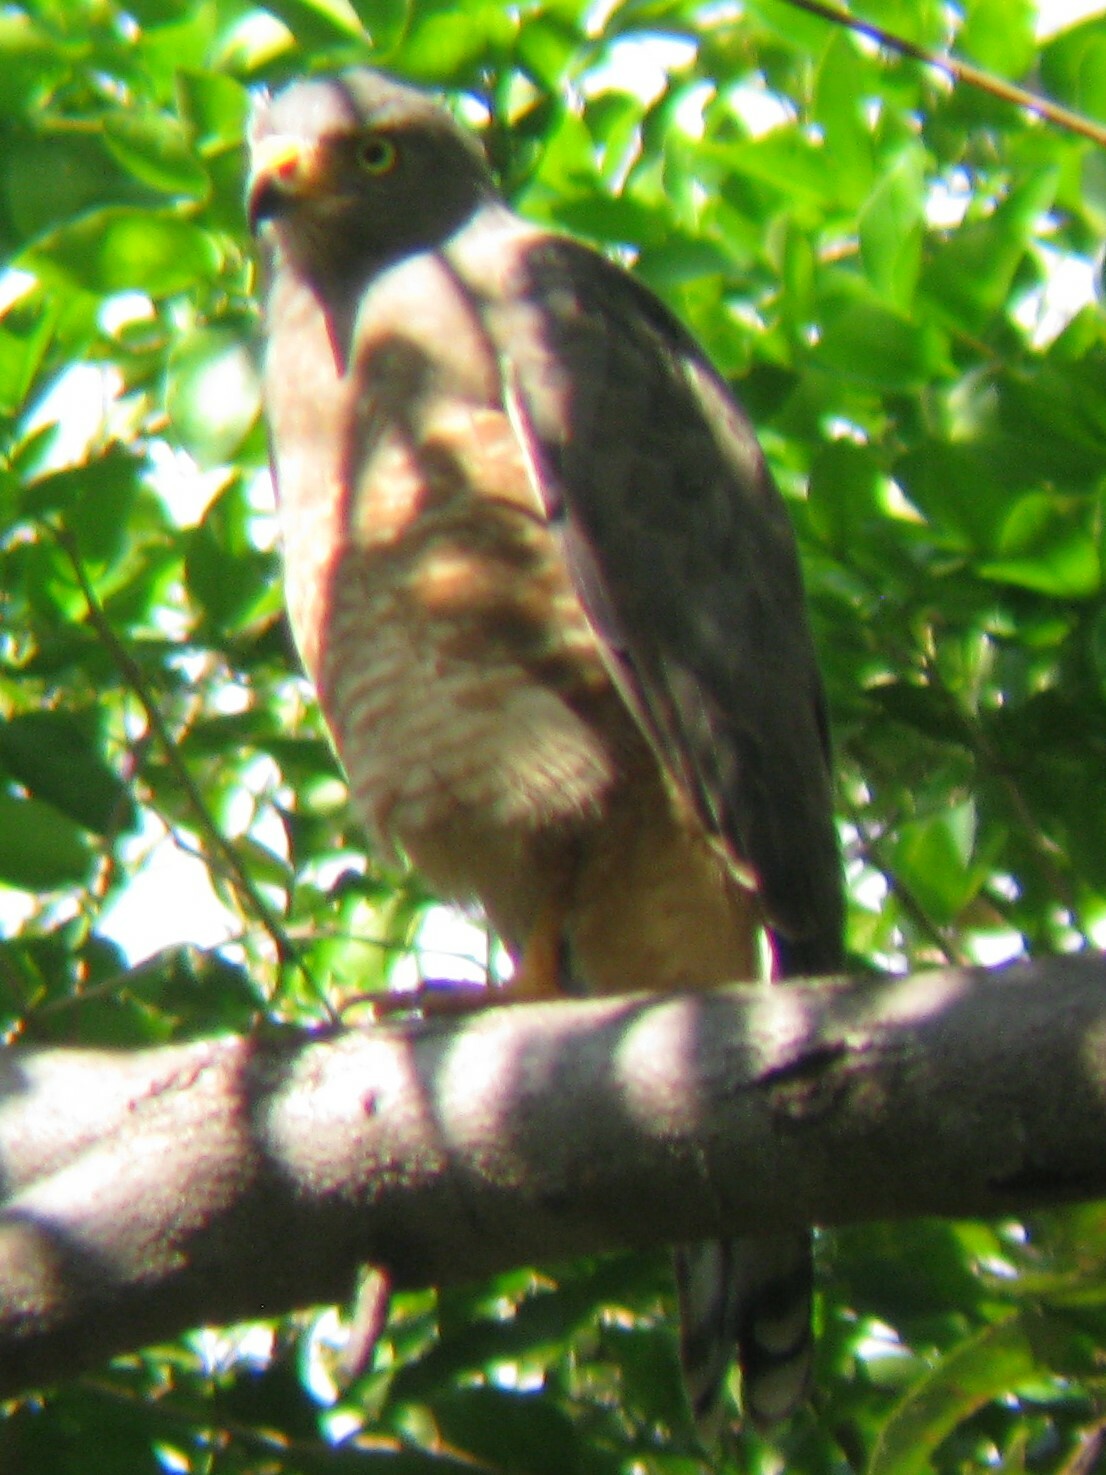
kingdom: Animalia
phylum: Chordata
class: Aves
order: Accipitriformes
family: Accipitridae
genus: Rupornis
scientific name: Rupornis magnirostris
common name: Roadside hawk
